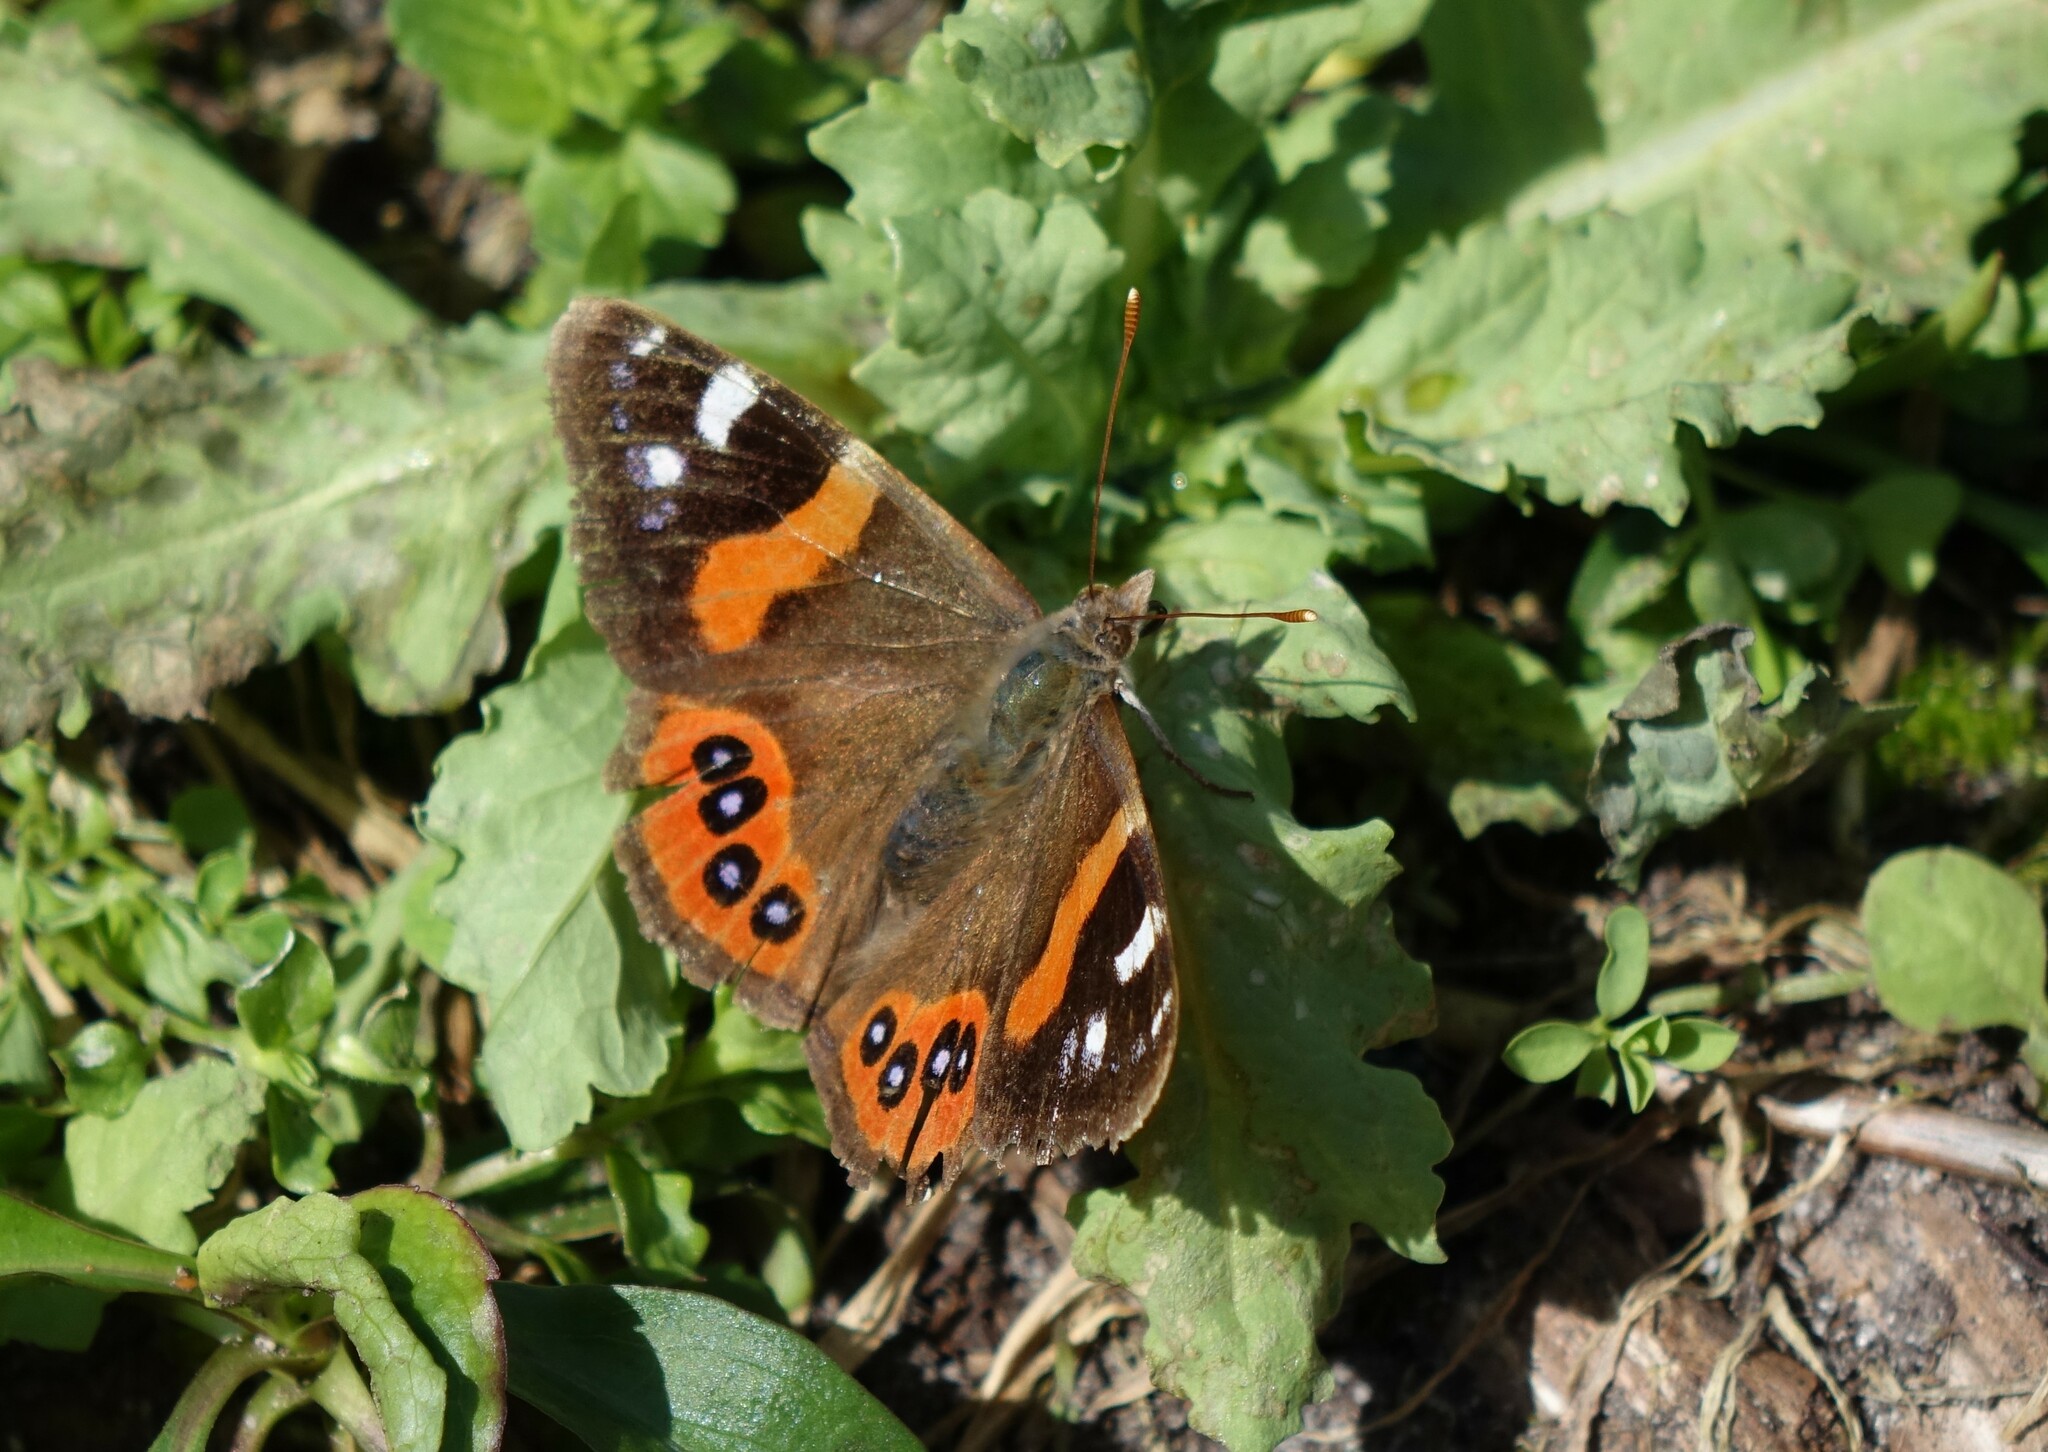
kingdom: Animalia
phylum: Arthropoda
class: Insecta
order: Lepidoptera
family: Nymphalidae
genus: Vanessa
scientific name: Vanessa gonerilla
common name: New zealand red admiral
